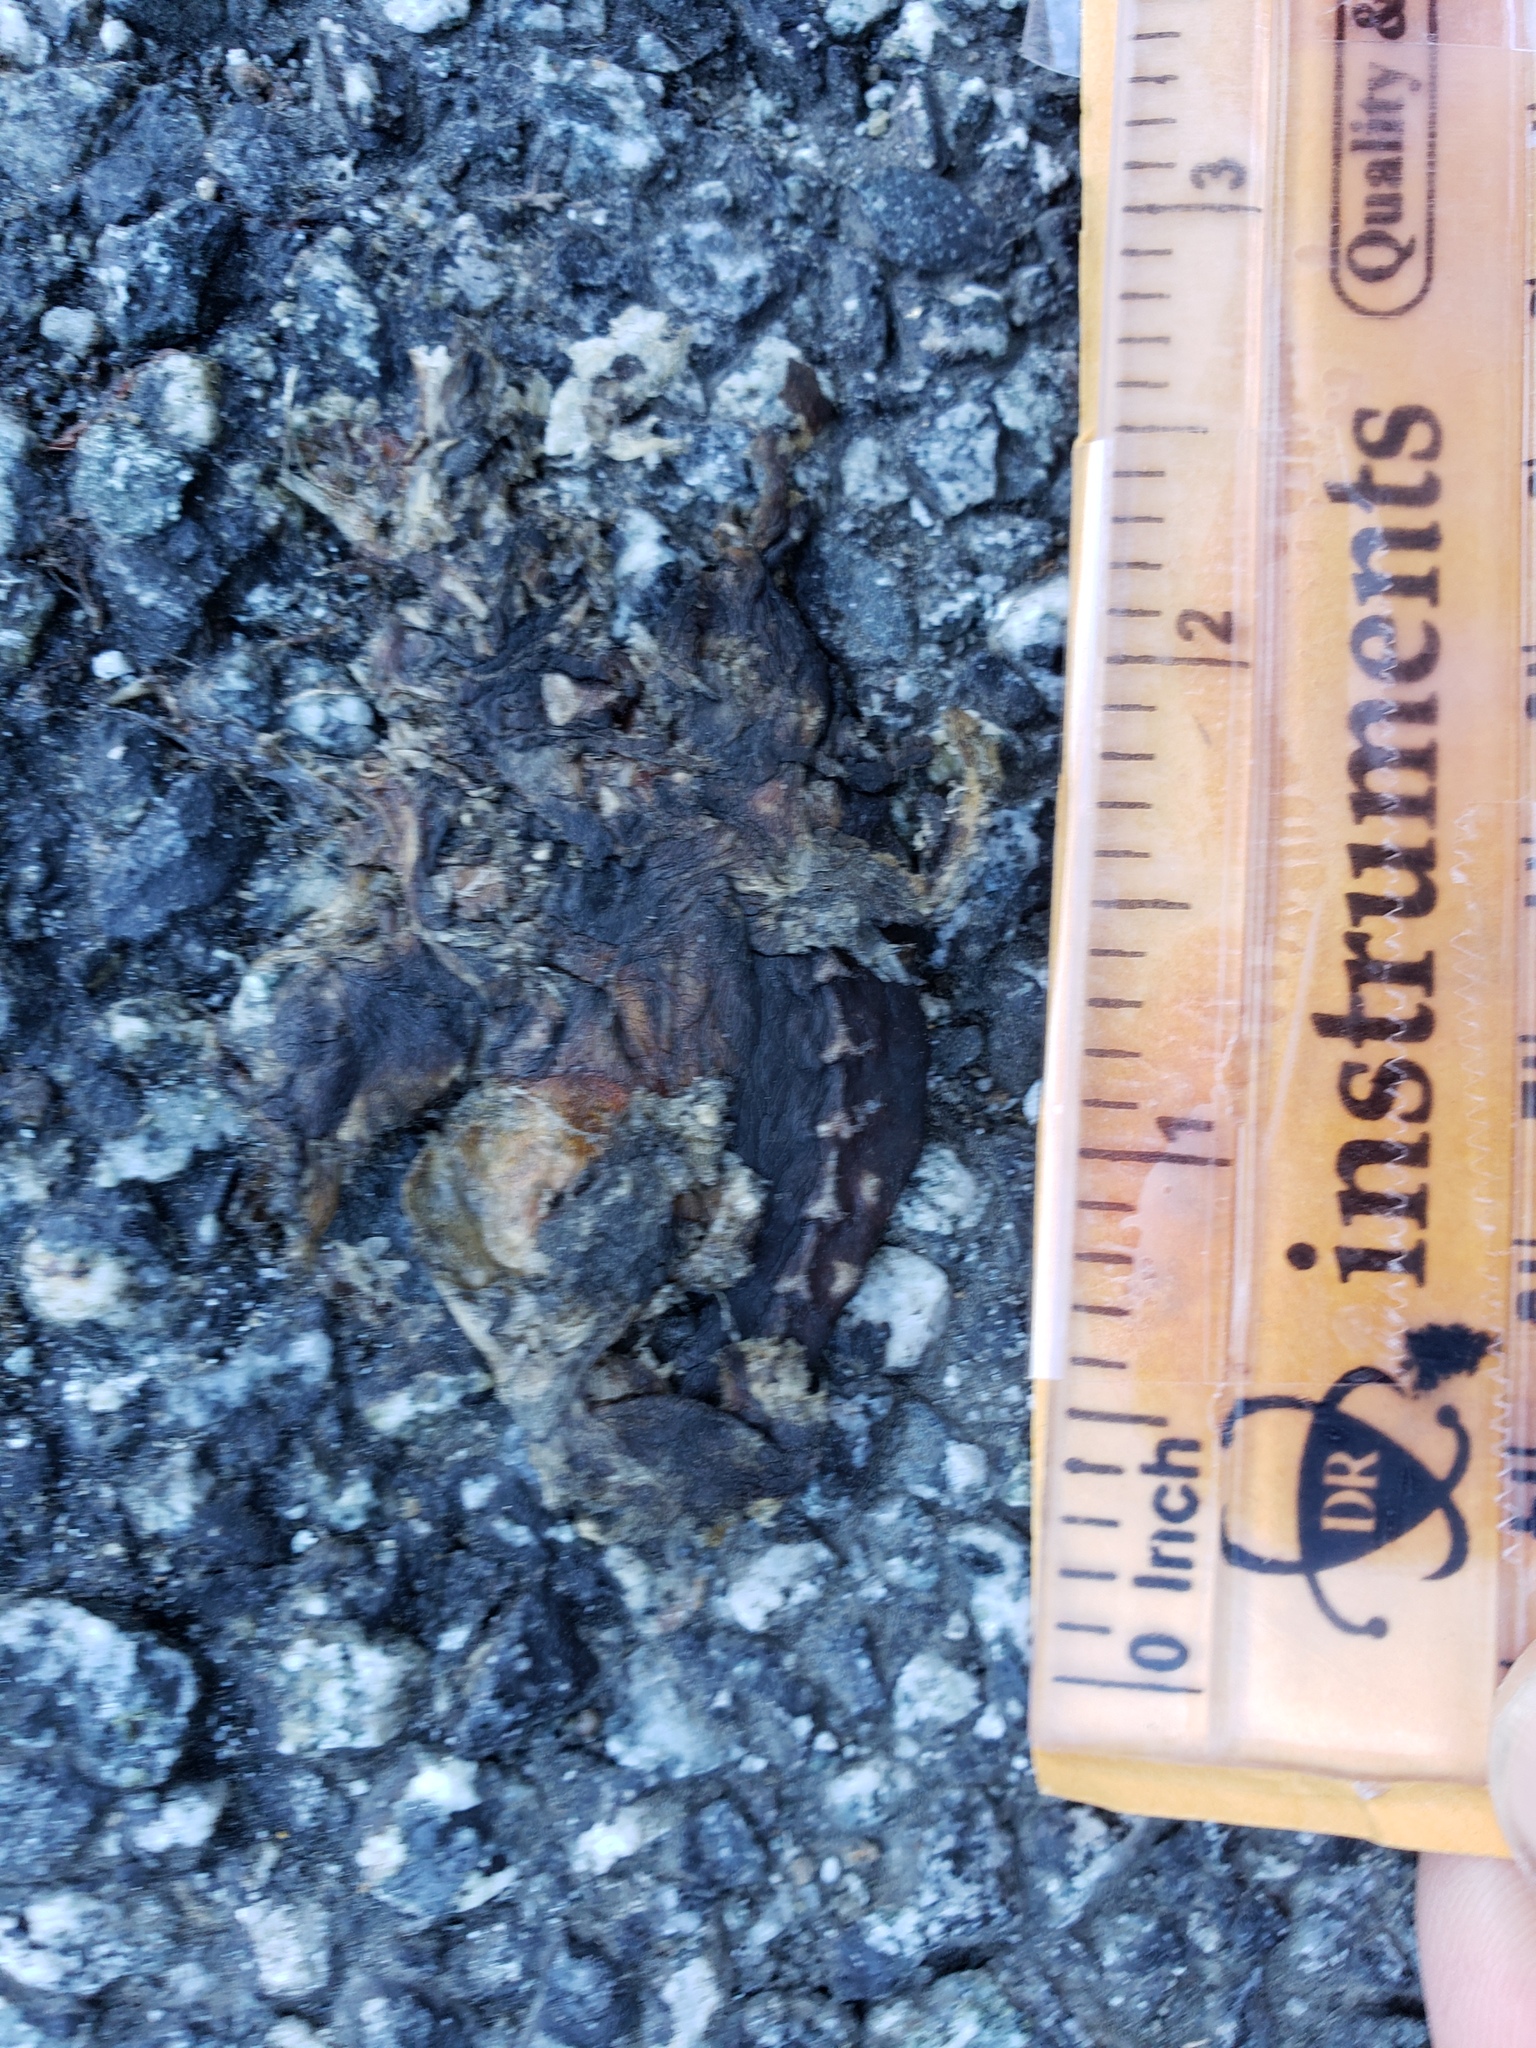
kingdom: Animalia
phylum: Chordata
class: Amphibia
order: Caudata
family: Salamandridae
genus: Taricha
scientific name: Taricha
